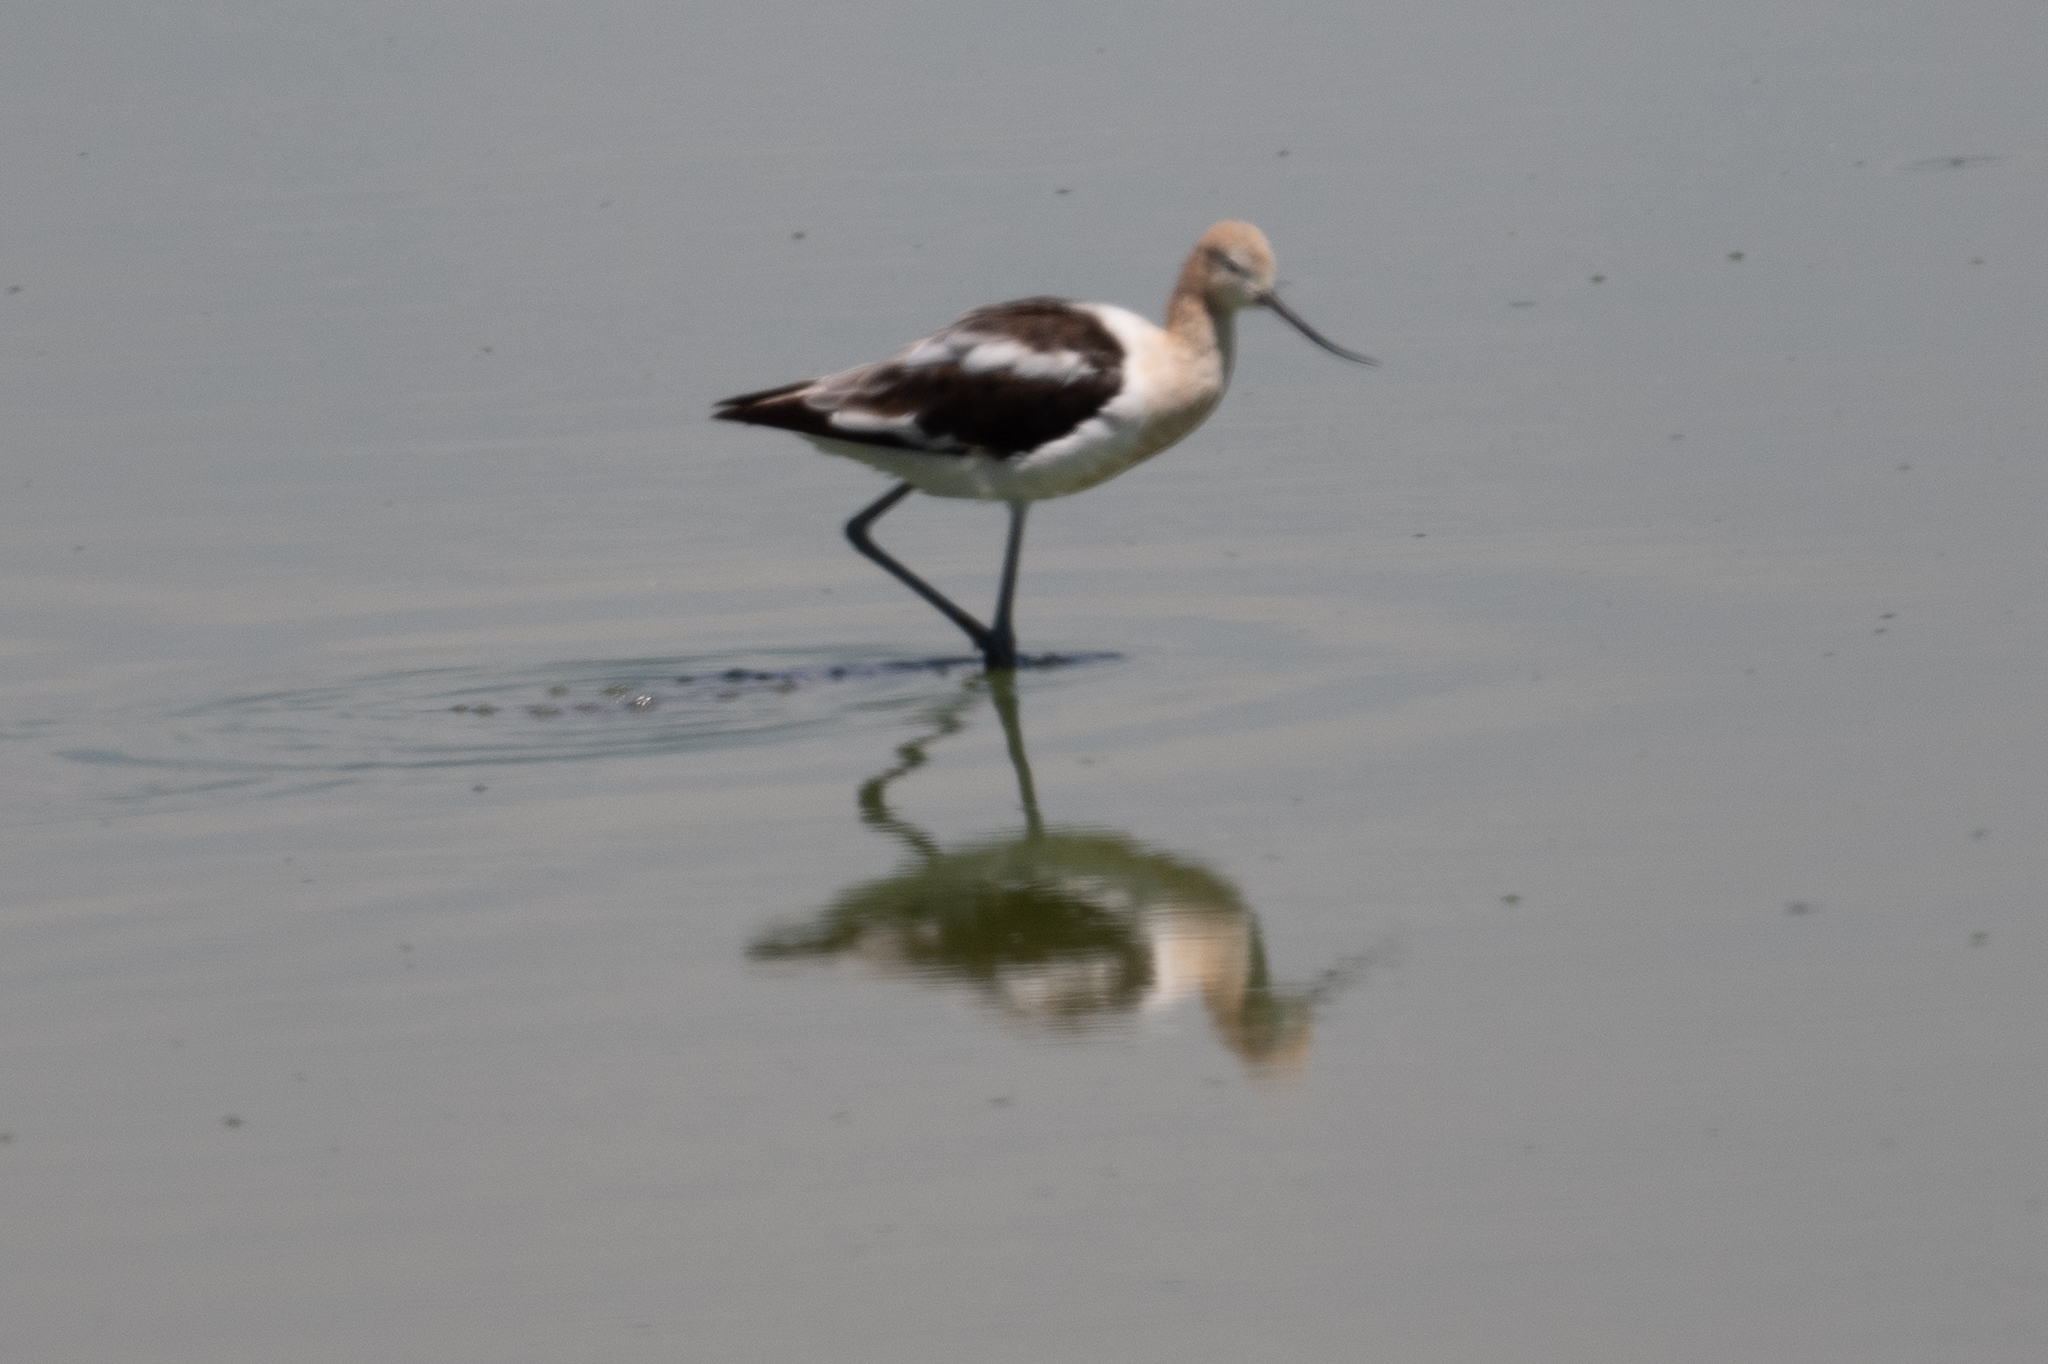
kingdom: Animalia
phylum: Chordata
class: Aves
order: Charadriiformes
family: Recurvirostridae
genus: Recurvirostra
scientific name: Recurvirostra americana
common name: American avocet
